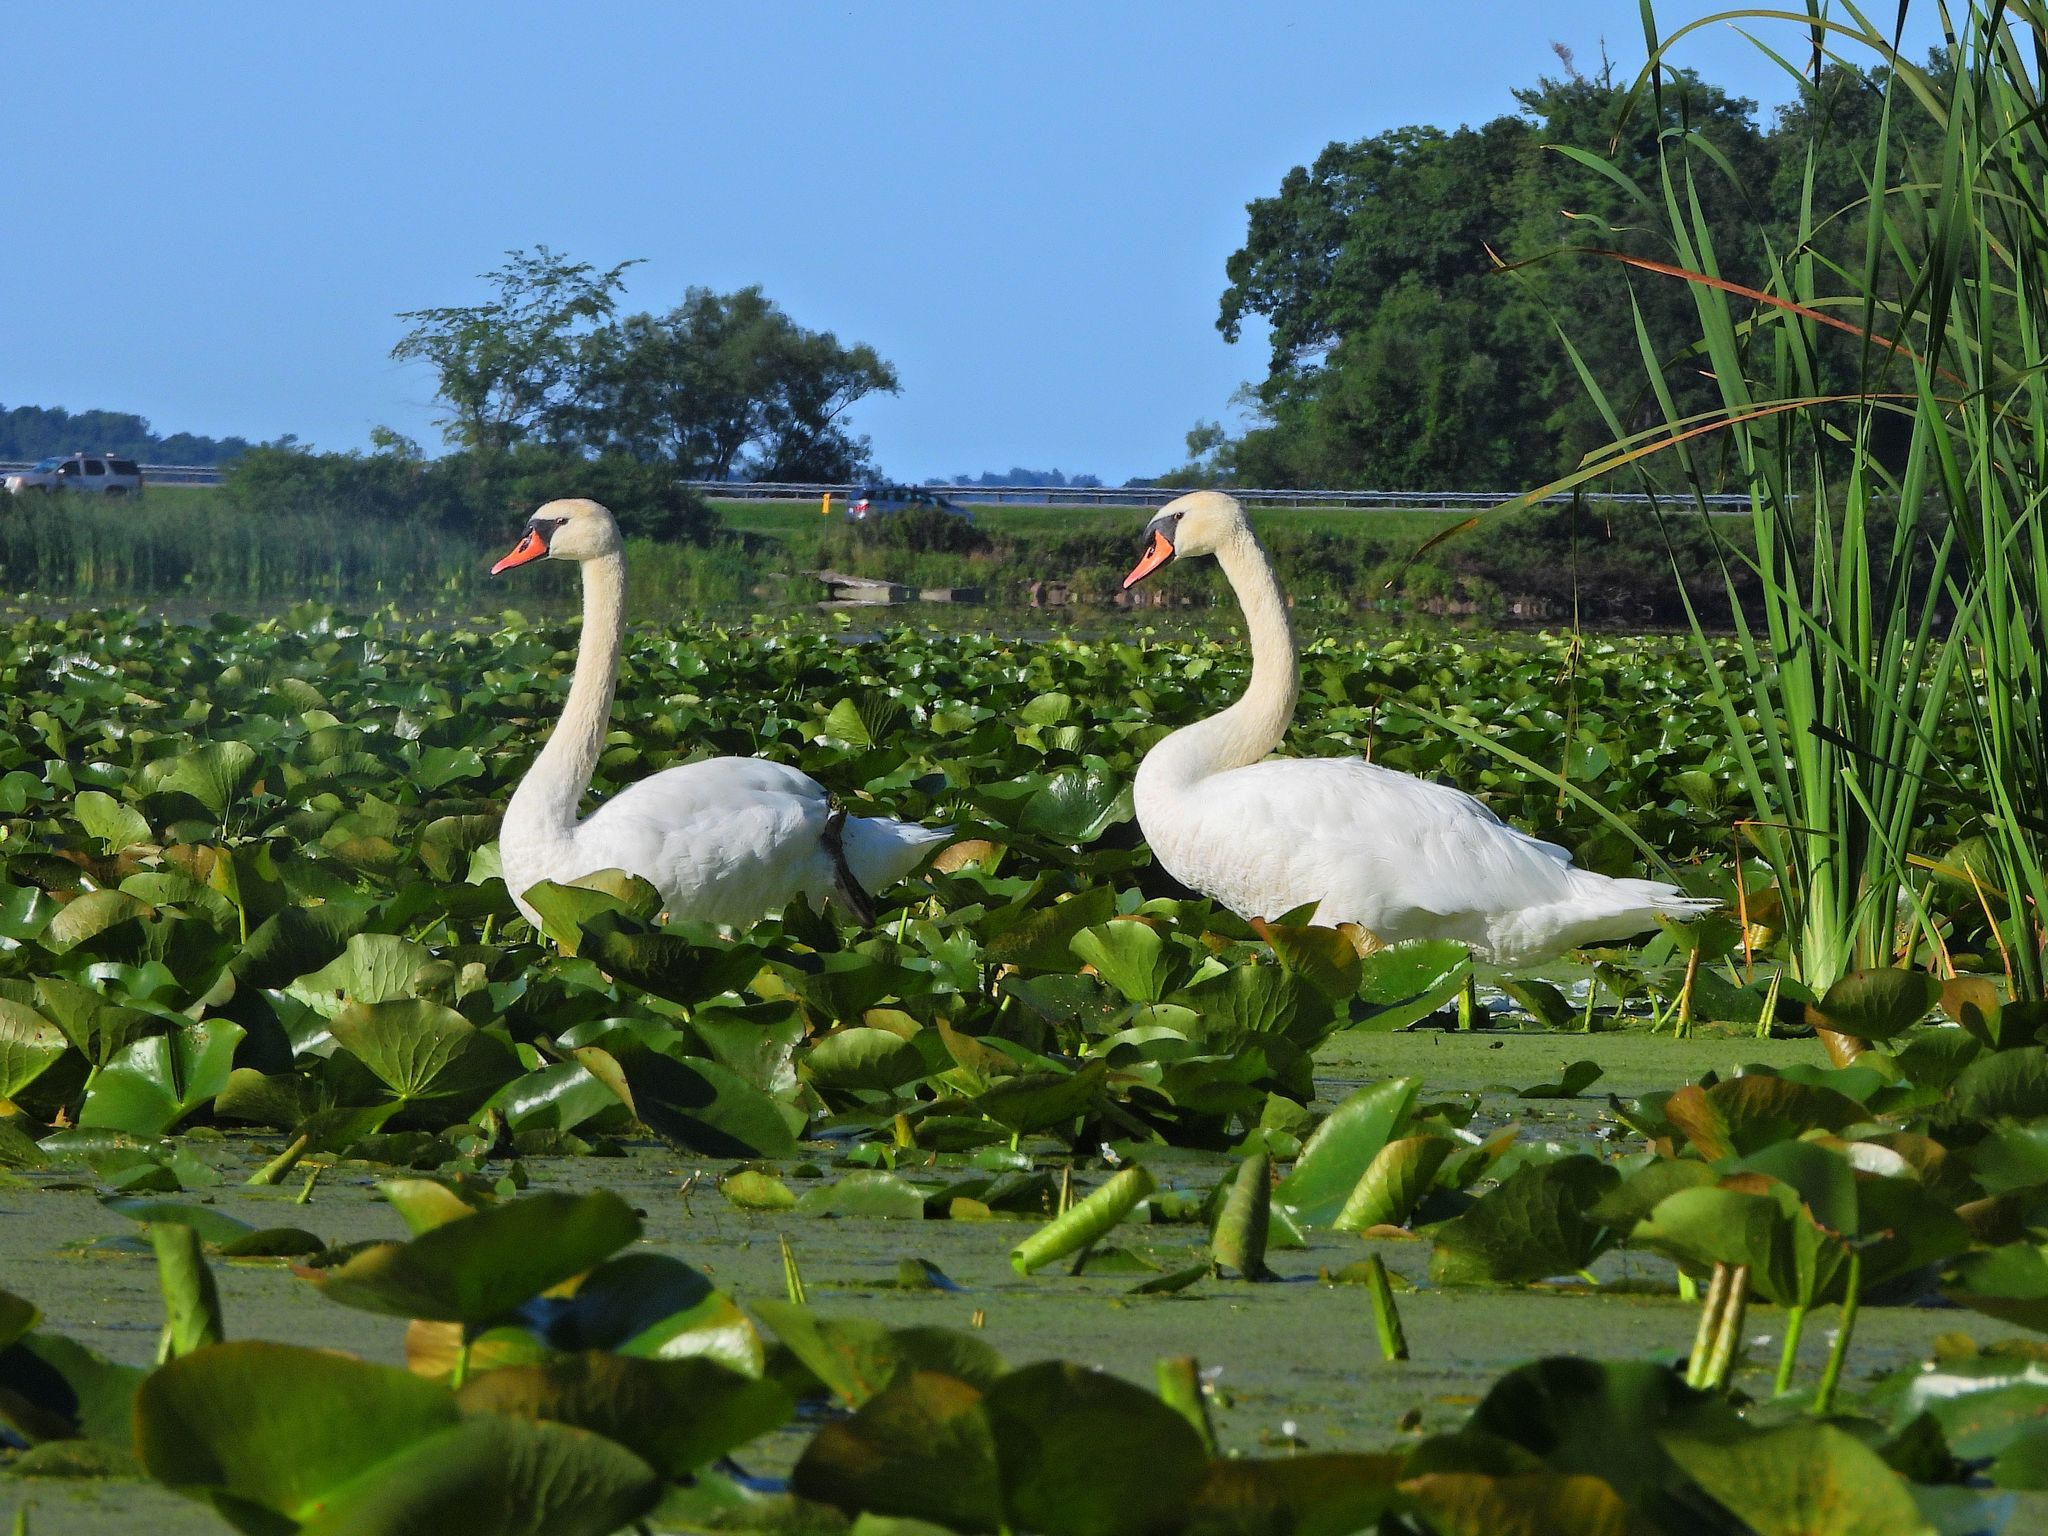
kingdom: Animalia
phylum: Chordata
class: Aves
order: Anseriformes
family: Anatidae
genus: Cygnus
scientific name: Cygnus olor
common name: Mute swan
